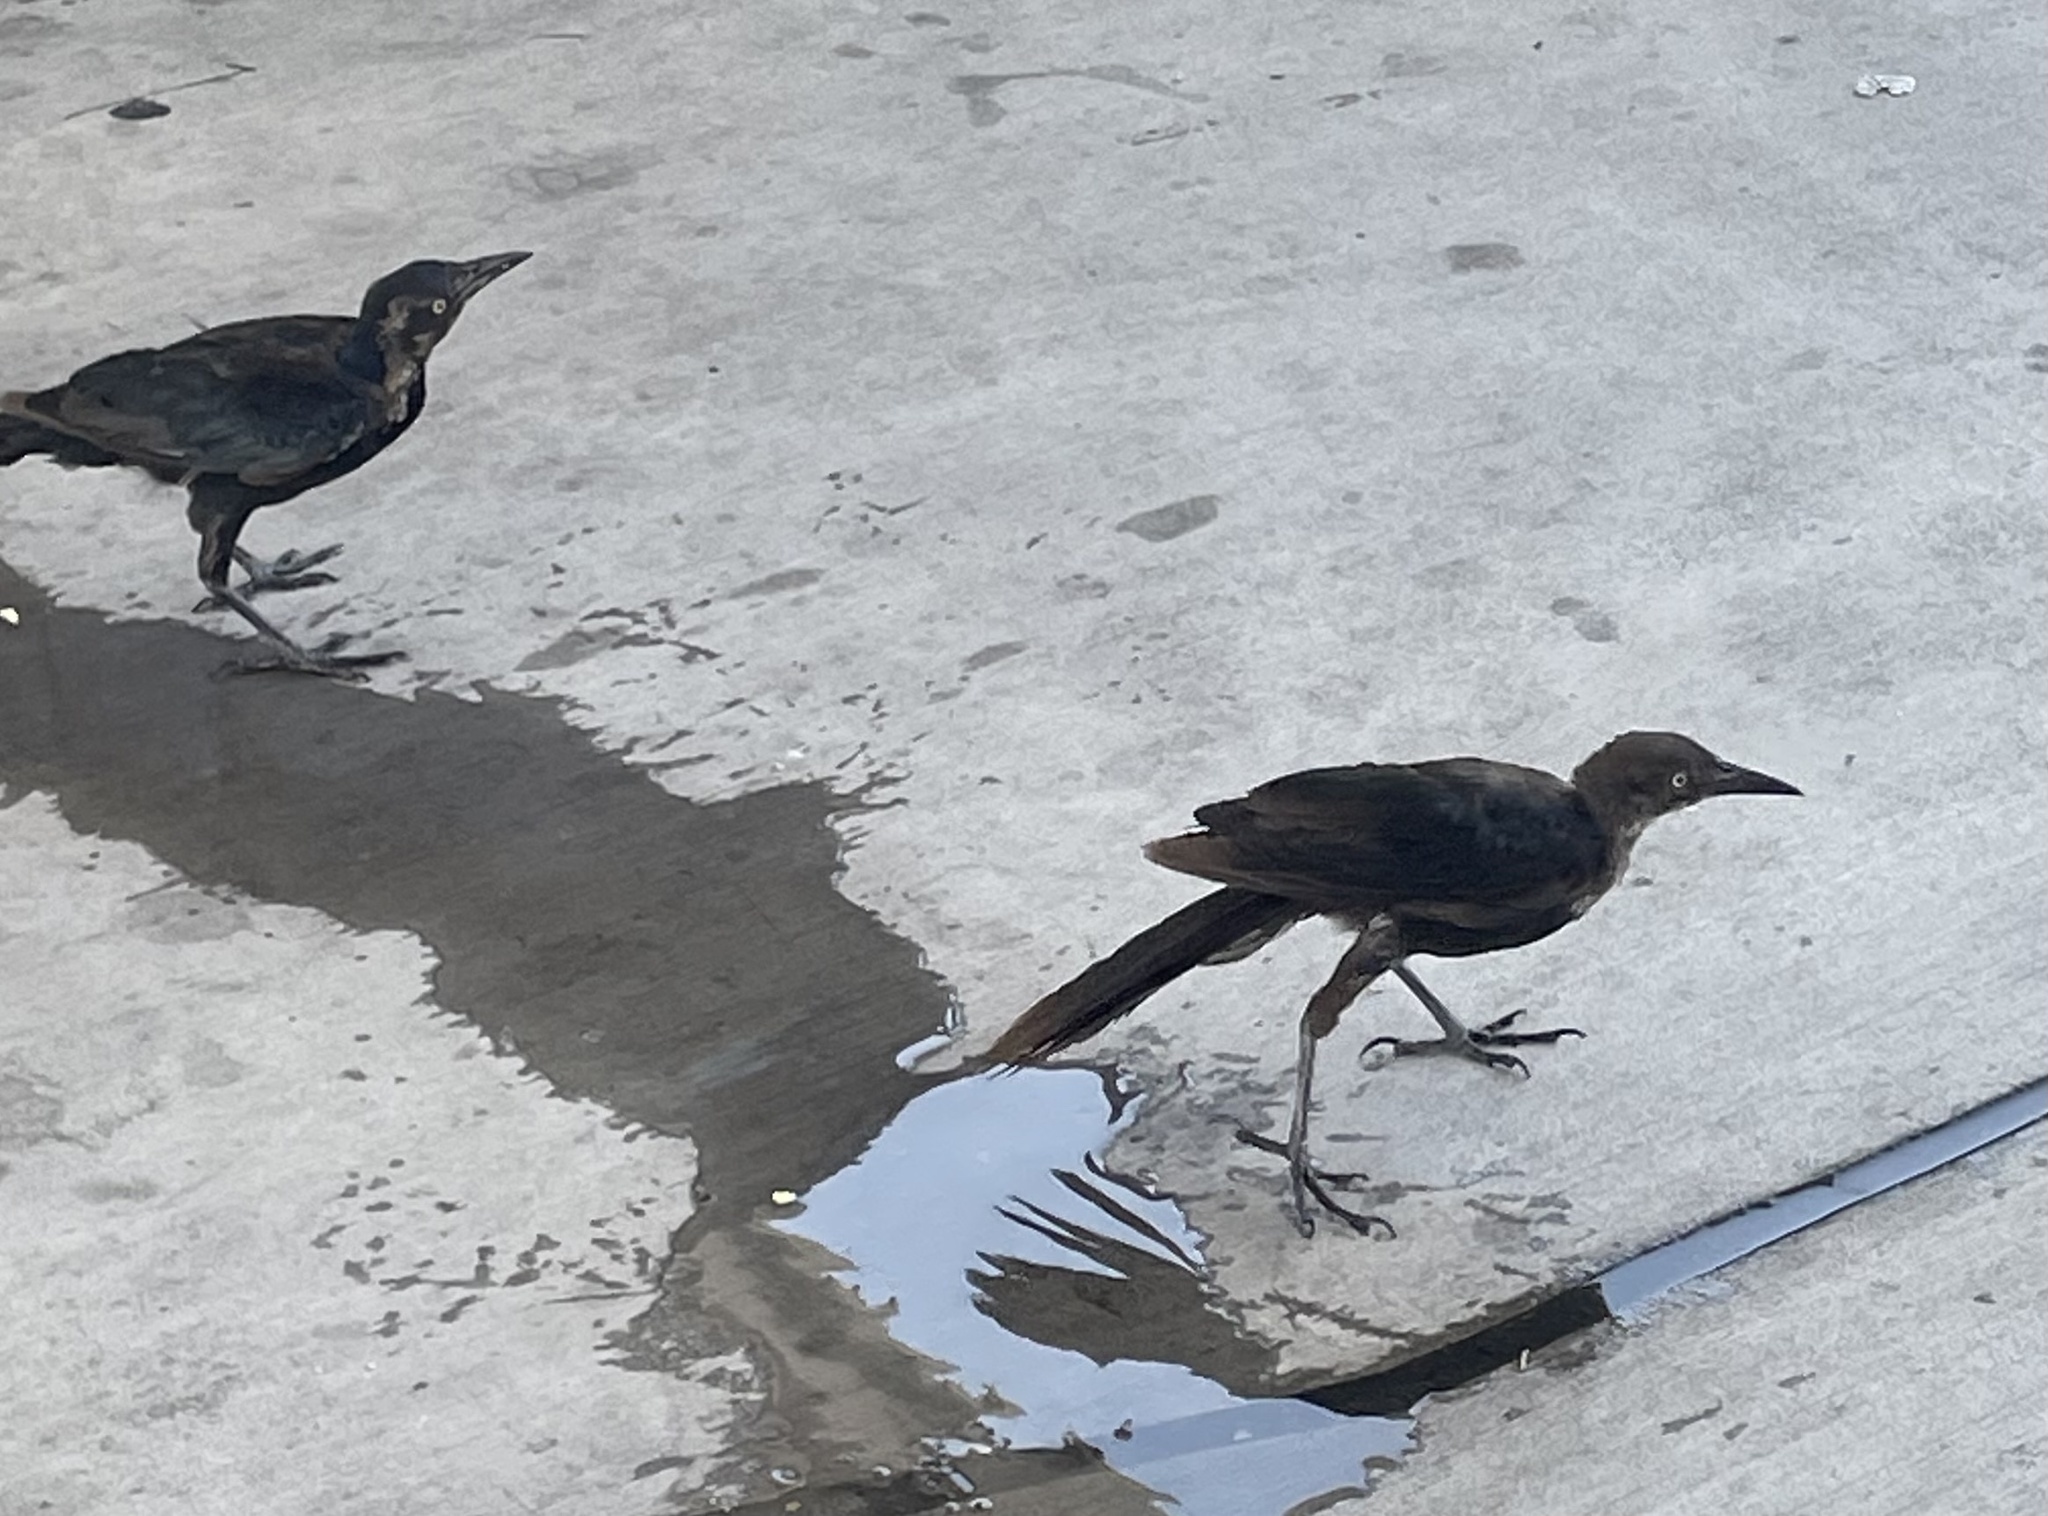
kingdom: Animalia
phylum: Chordata
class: Aves
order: Passeriformes
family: Icteridae
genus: Quiscalus
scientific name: Quiscalus mexicanus
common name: Great-tailed grackle
